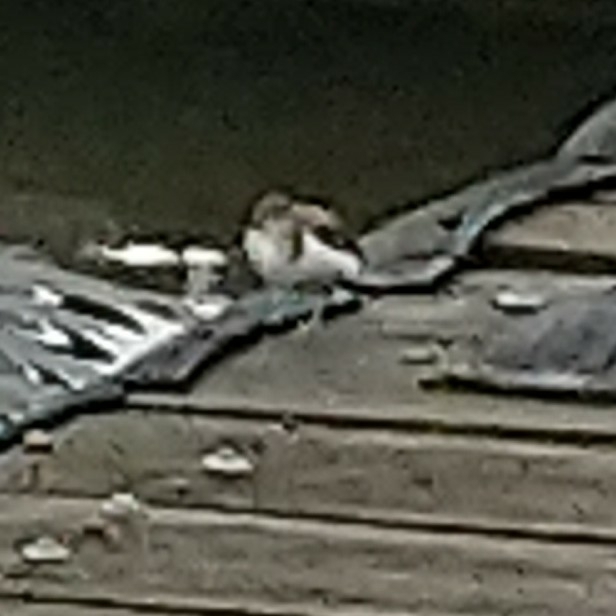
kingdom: Animalia
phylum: Chordata
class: Aves
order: Charadriiformes
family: Scolopacidae
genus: Actitis
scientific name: Actitis hypoleucos
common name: Common sandpiper
